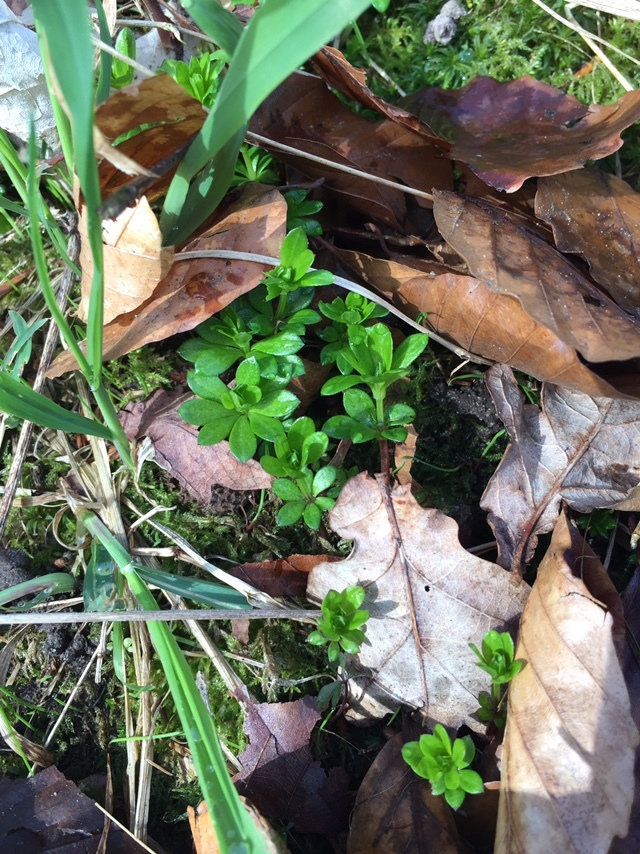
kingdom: Plantae
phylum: Tracheophyta
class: Magnoliopsida
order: Gentianales
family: Rubiaceae
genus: Galium
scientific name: Galium odoratum
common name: Sweet woodruff
